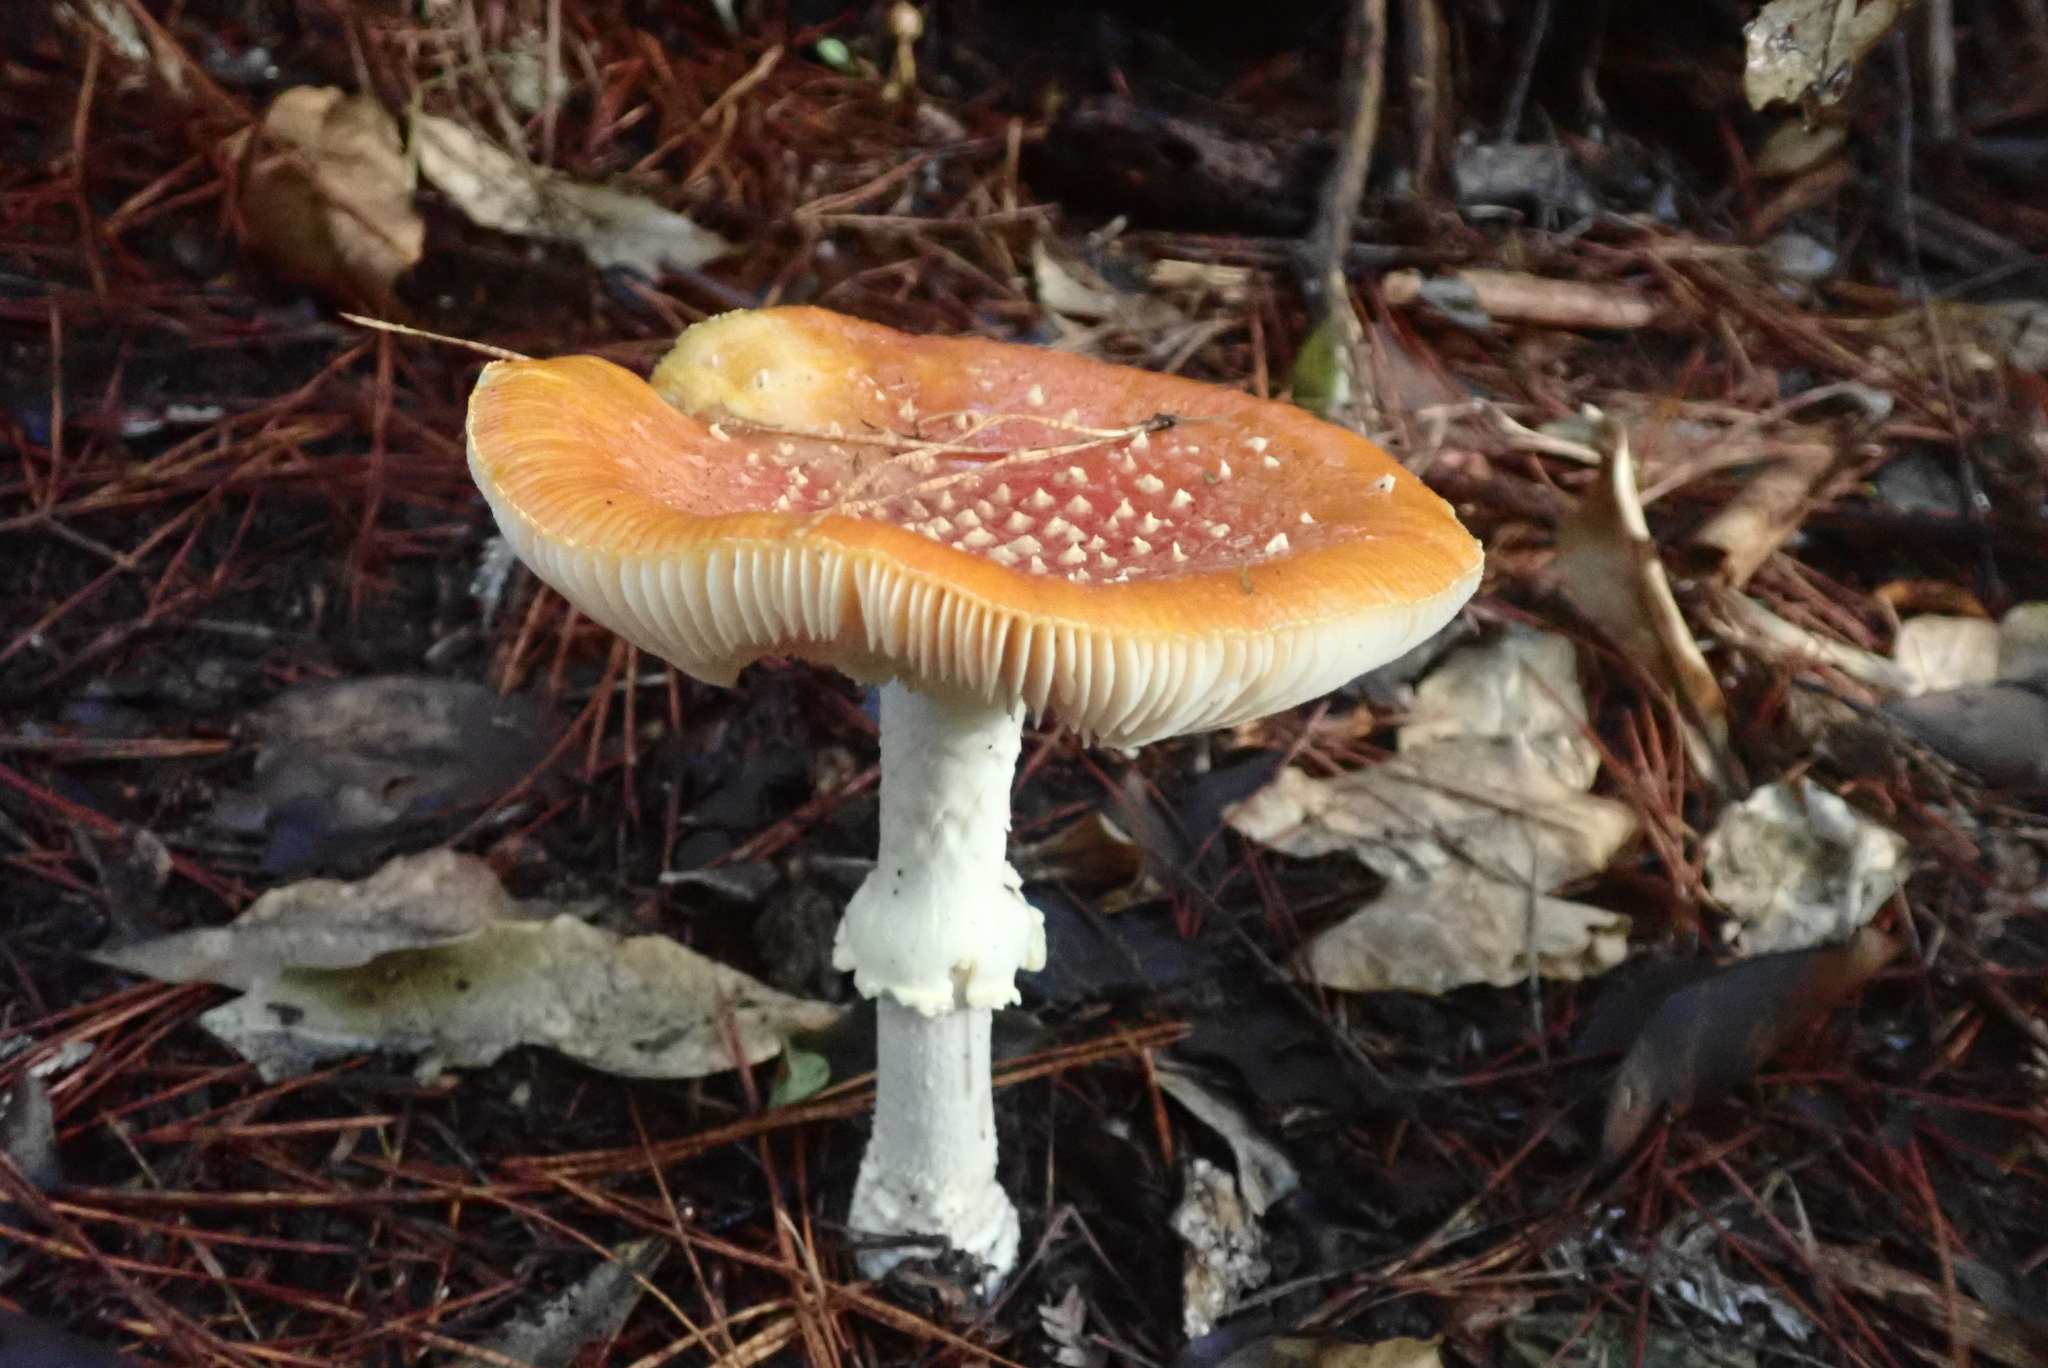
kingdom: Fungi
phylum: Basidiomycota
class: Agaricomycetes
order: Agaricales
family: Amanitaceae
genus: Amanita
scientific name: Amanita muscaria
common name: Fly agaric
